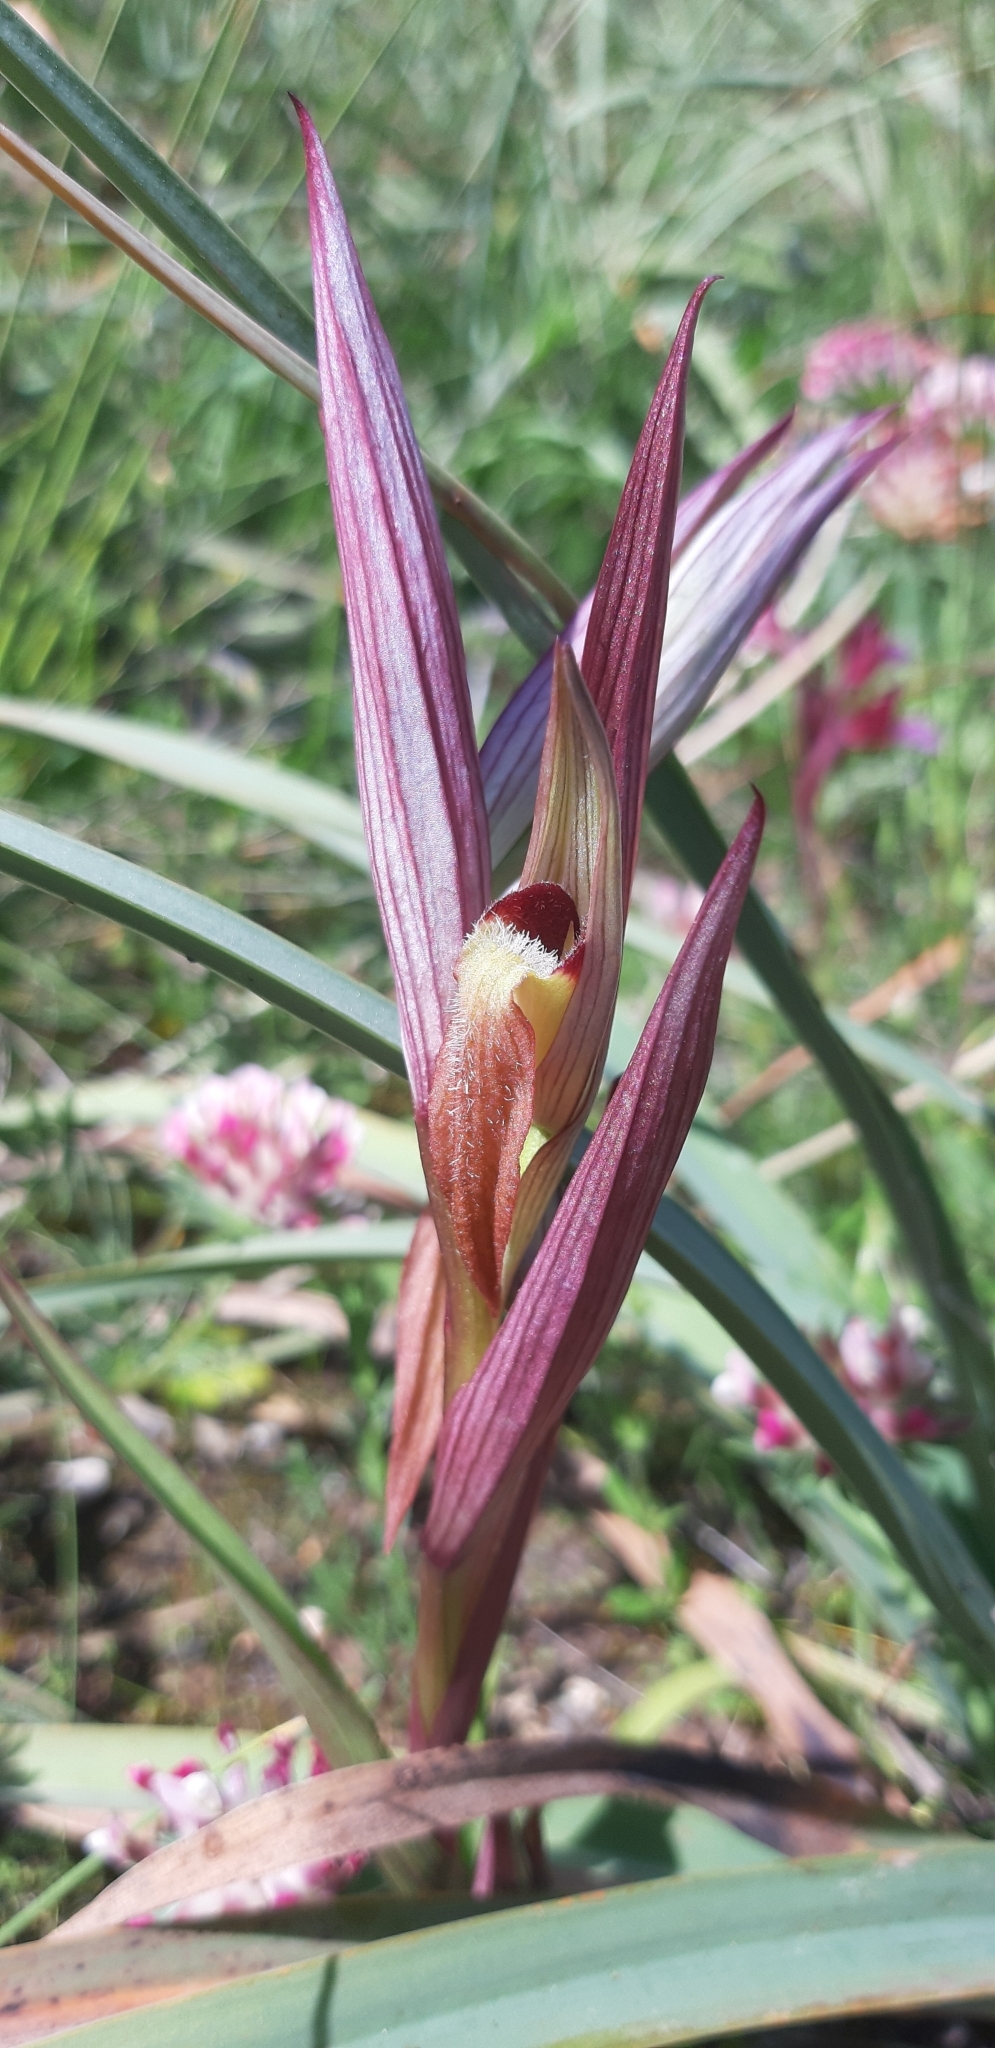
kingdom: Plantae
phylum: Tracheophyta
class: Liliopsida
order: Asparagales
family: Orchidaceae
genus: Serapias
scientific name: Serapias vomeracea
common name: Long-lipped tongue-orchid
